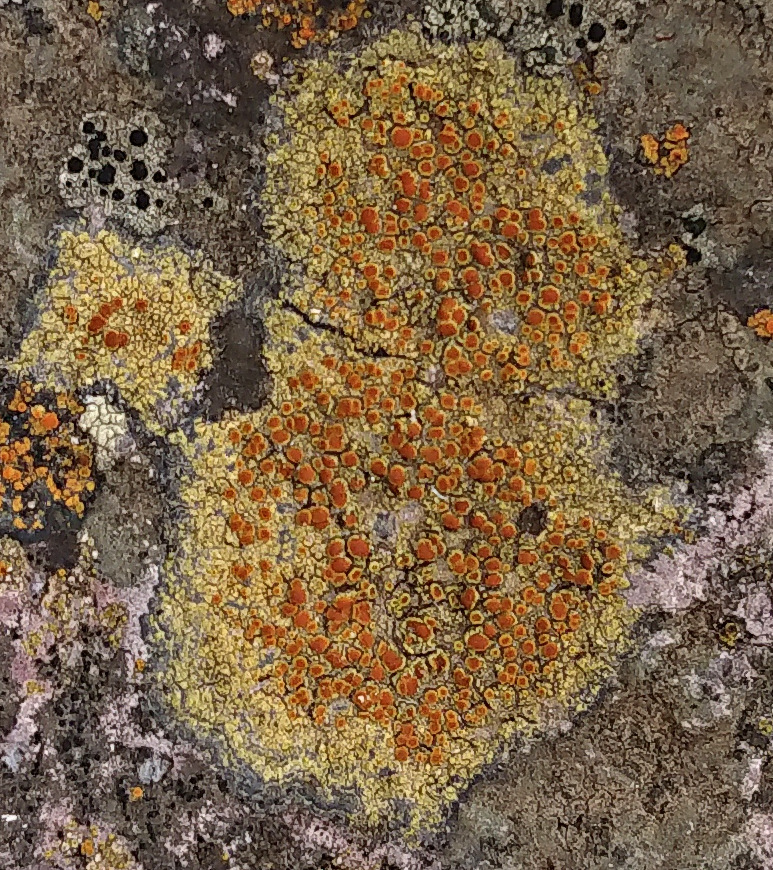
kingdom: Fungi
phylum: Ascomycota
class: Lecanoromycetes
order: Teloschistales
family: Teloschistaceae
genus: Gyalolechia
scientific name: Gyalolechia flavovirescens
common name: Sulphur firedot
